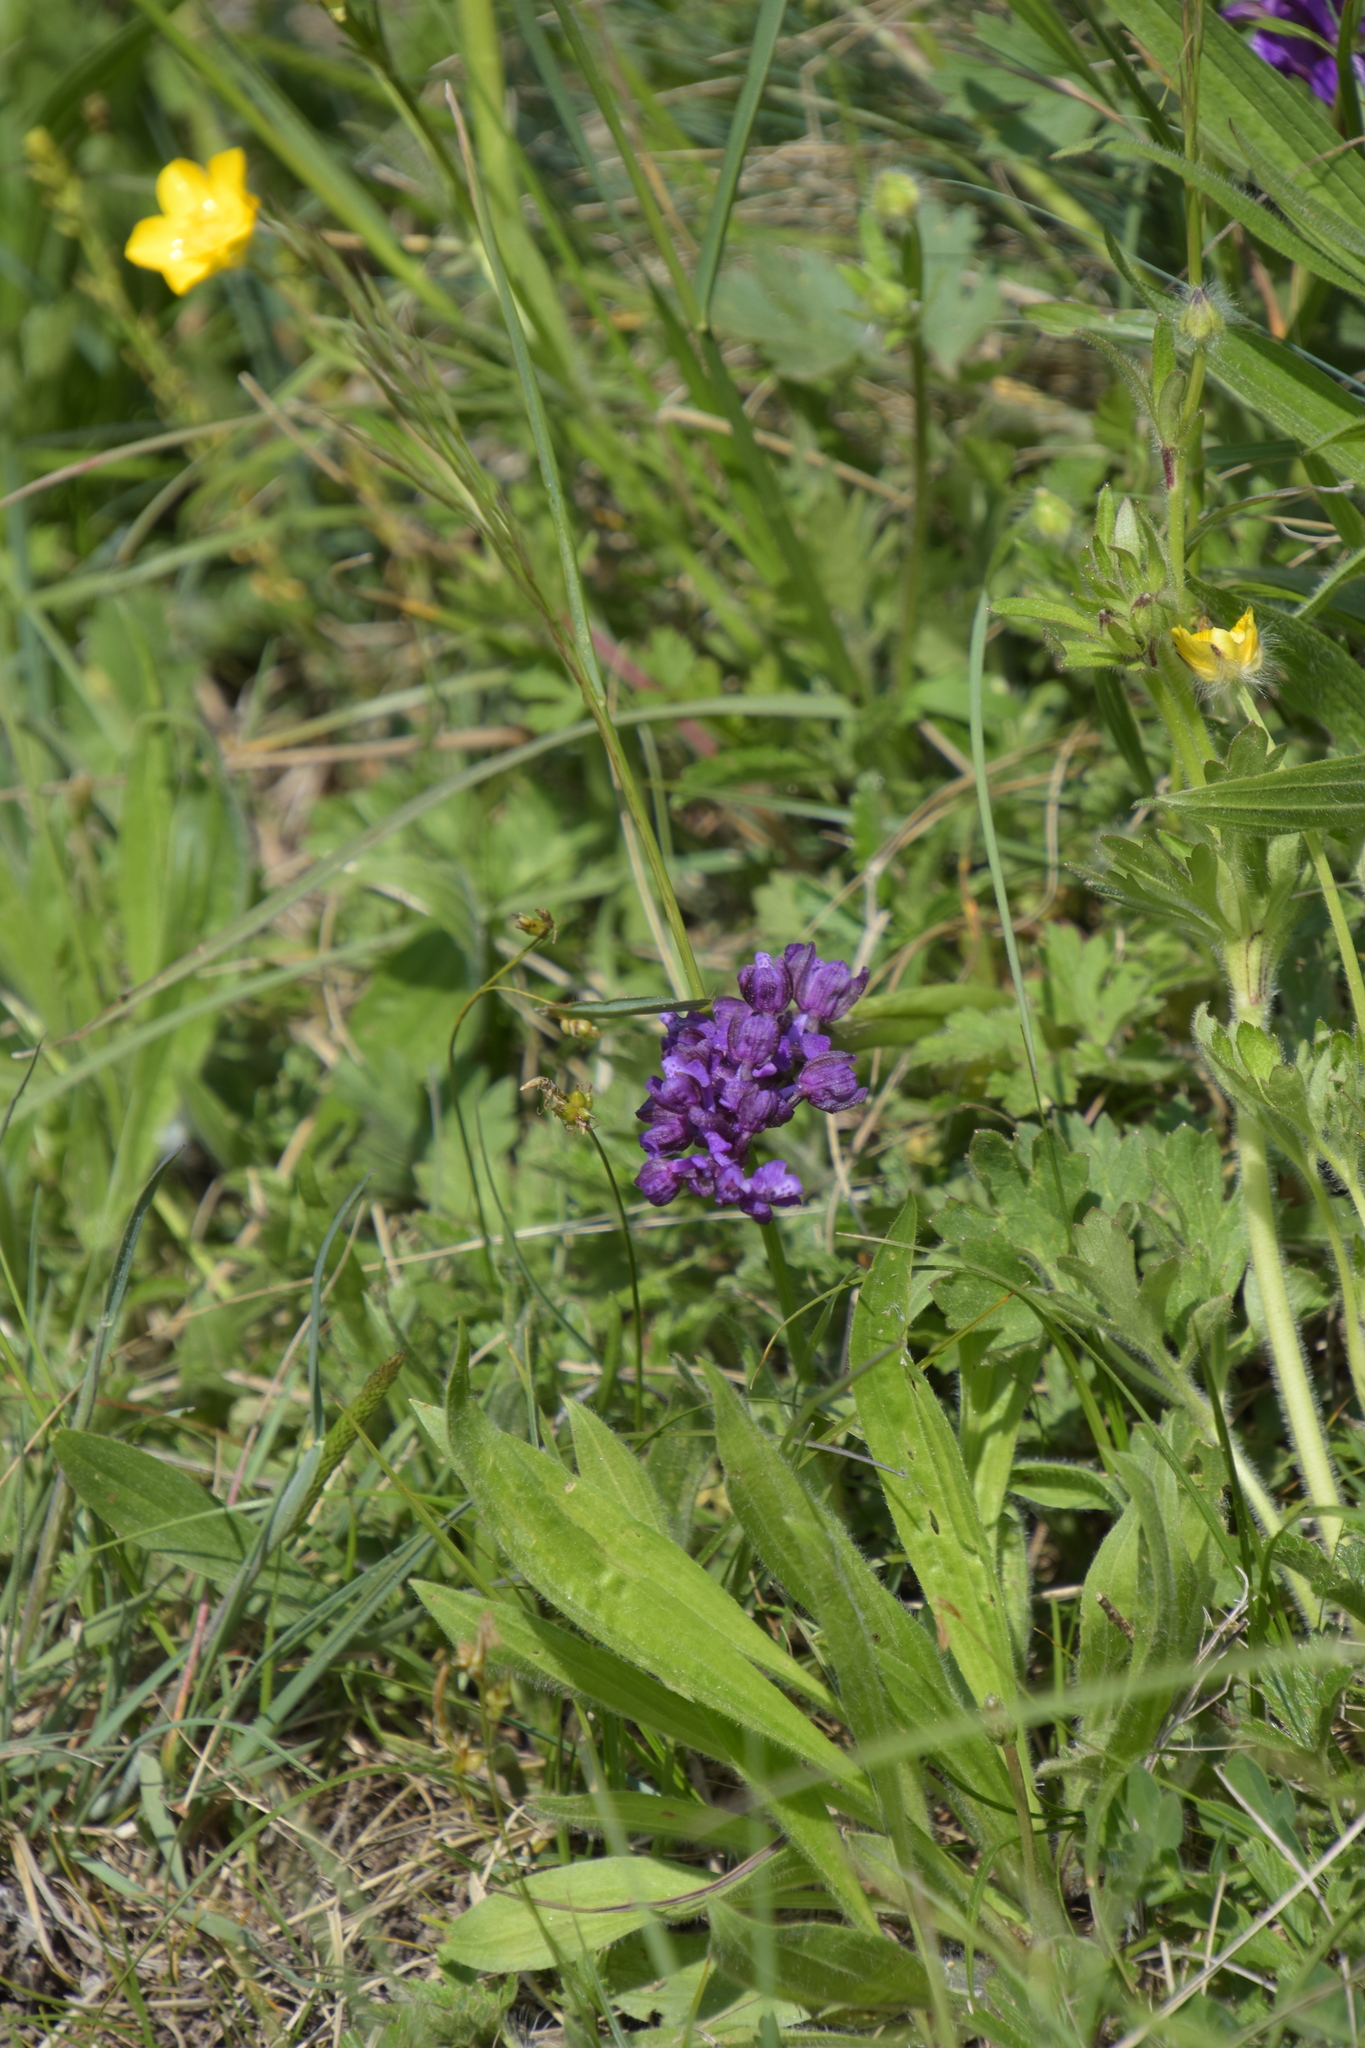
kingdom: Plantae
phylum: Tracheophyta
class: Liliopsida
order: Asparagales
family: Orchidaceae
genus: Anacamptis
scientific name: Anacamptis morio
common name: Green-winged orchid
